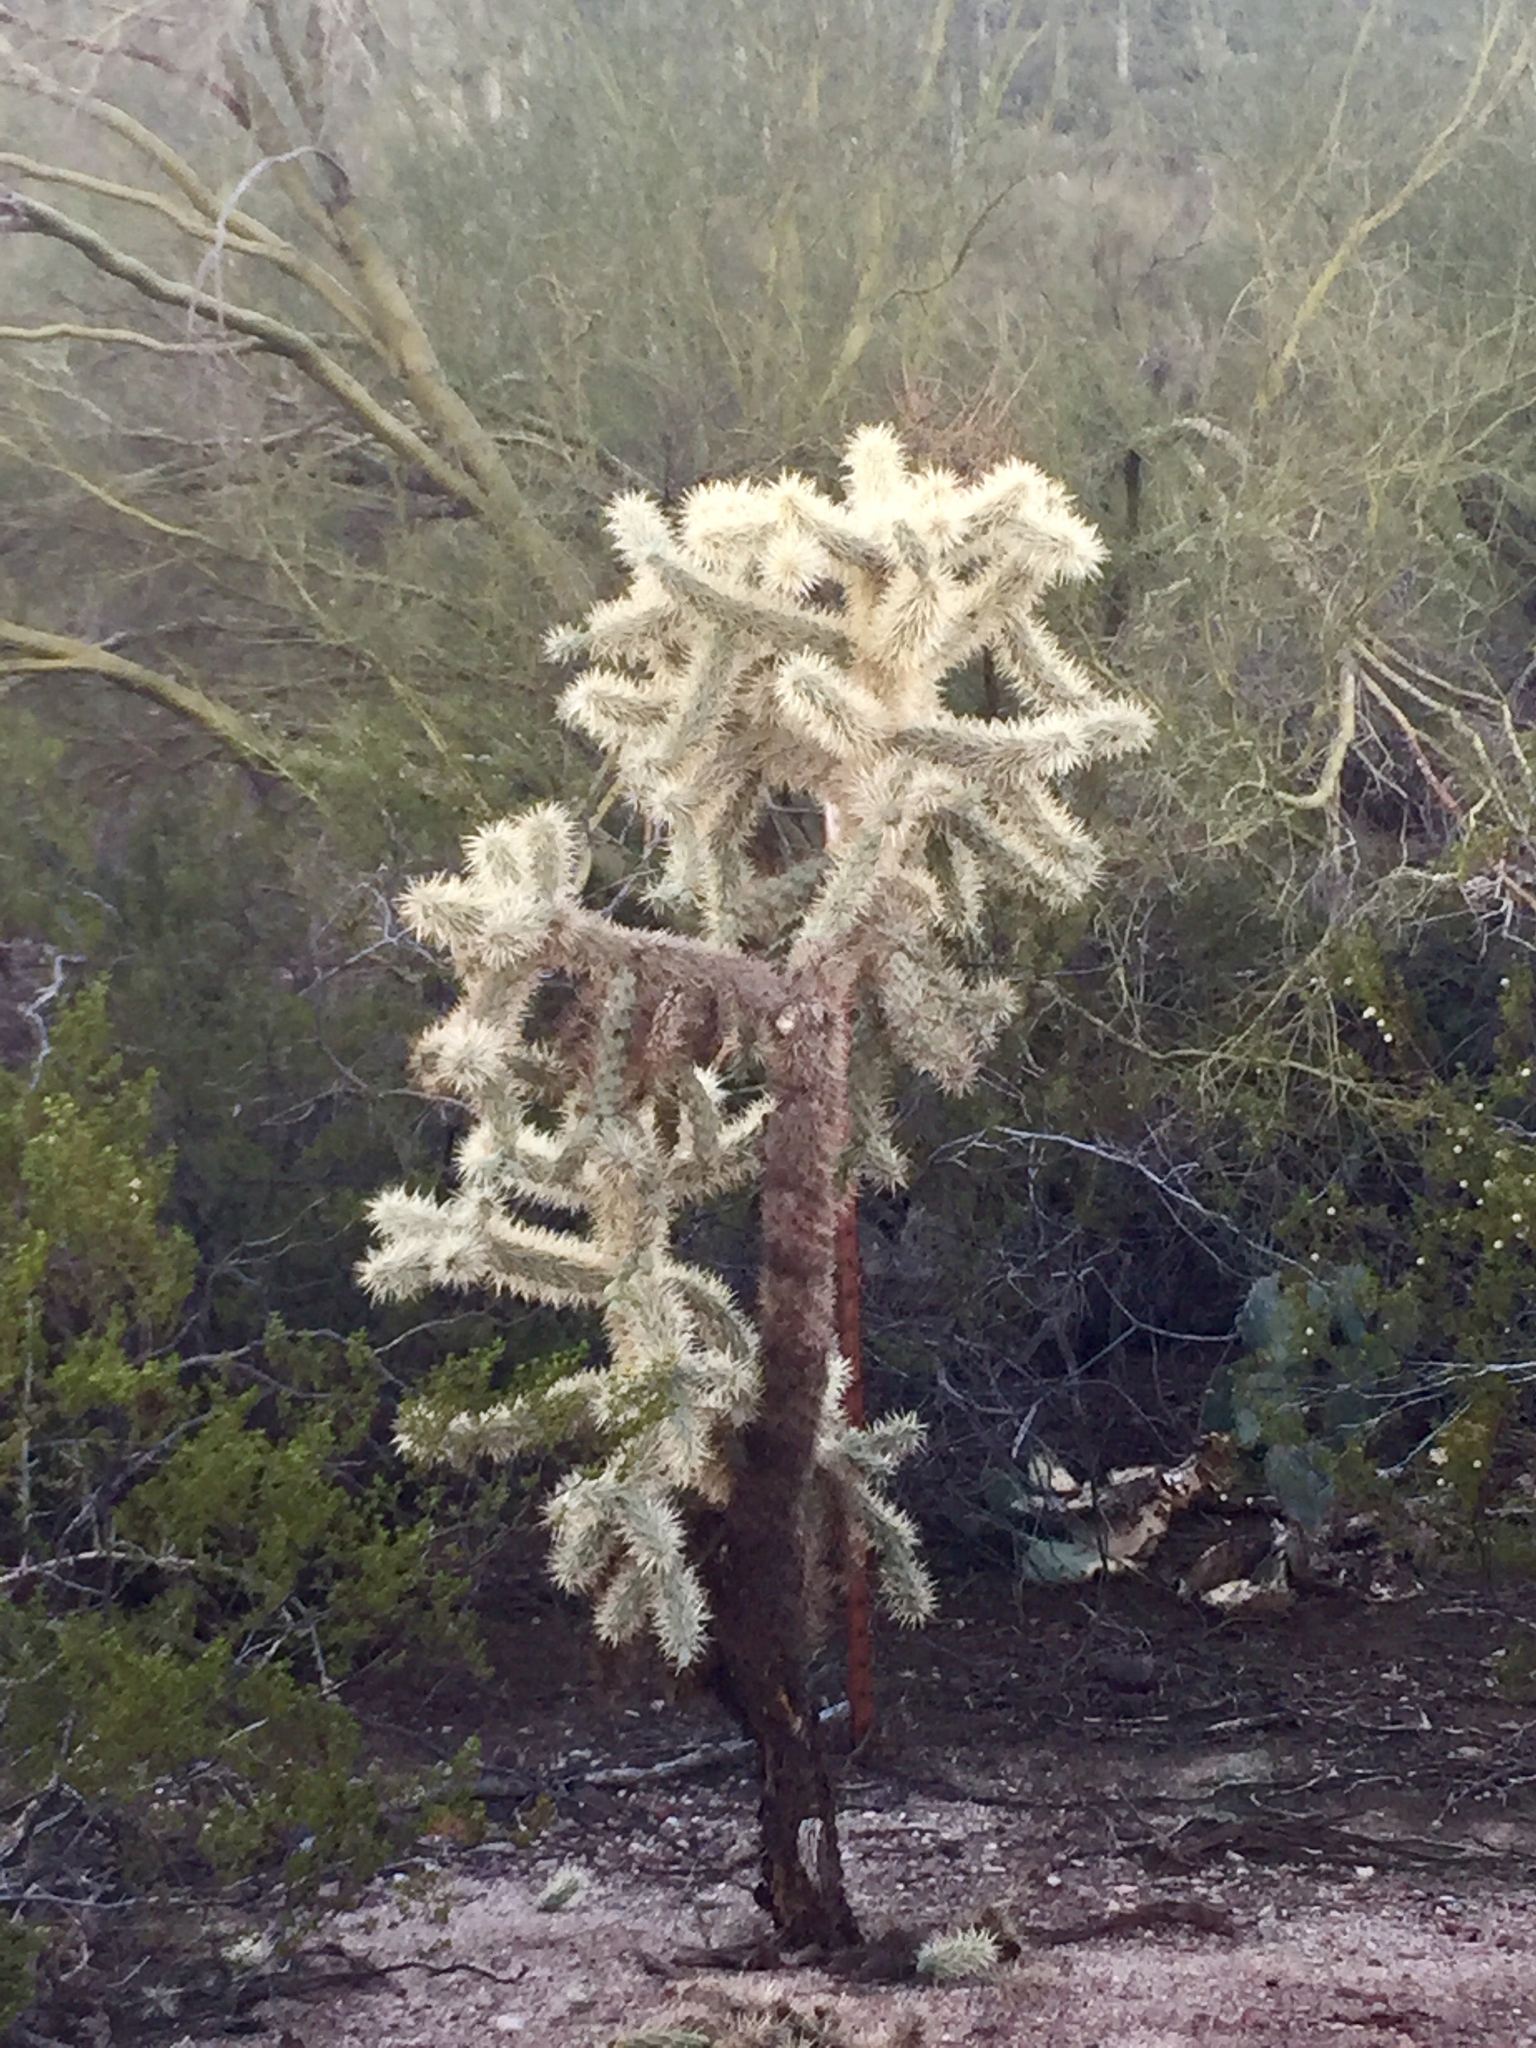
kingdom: Plantae
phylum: Tracheophyta
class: Magnoliopsida
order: Caryophyllales
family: Cactaceae
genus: Cylindropuntia
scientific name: Cylindropuntia fosbergii
